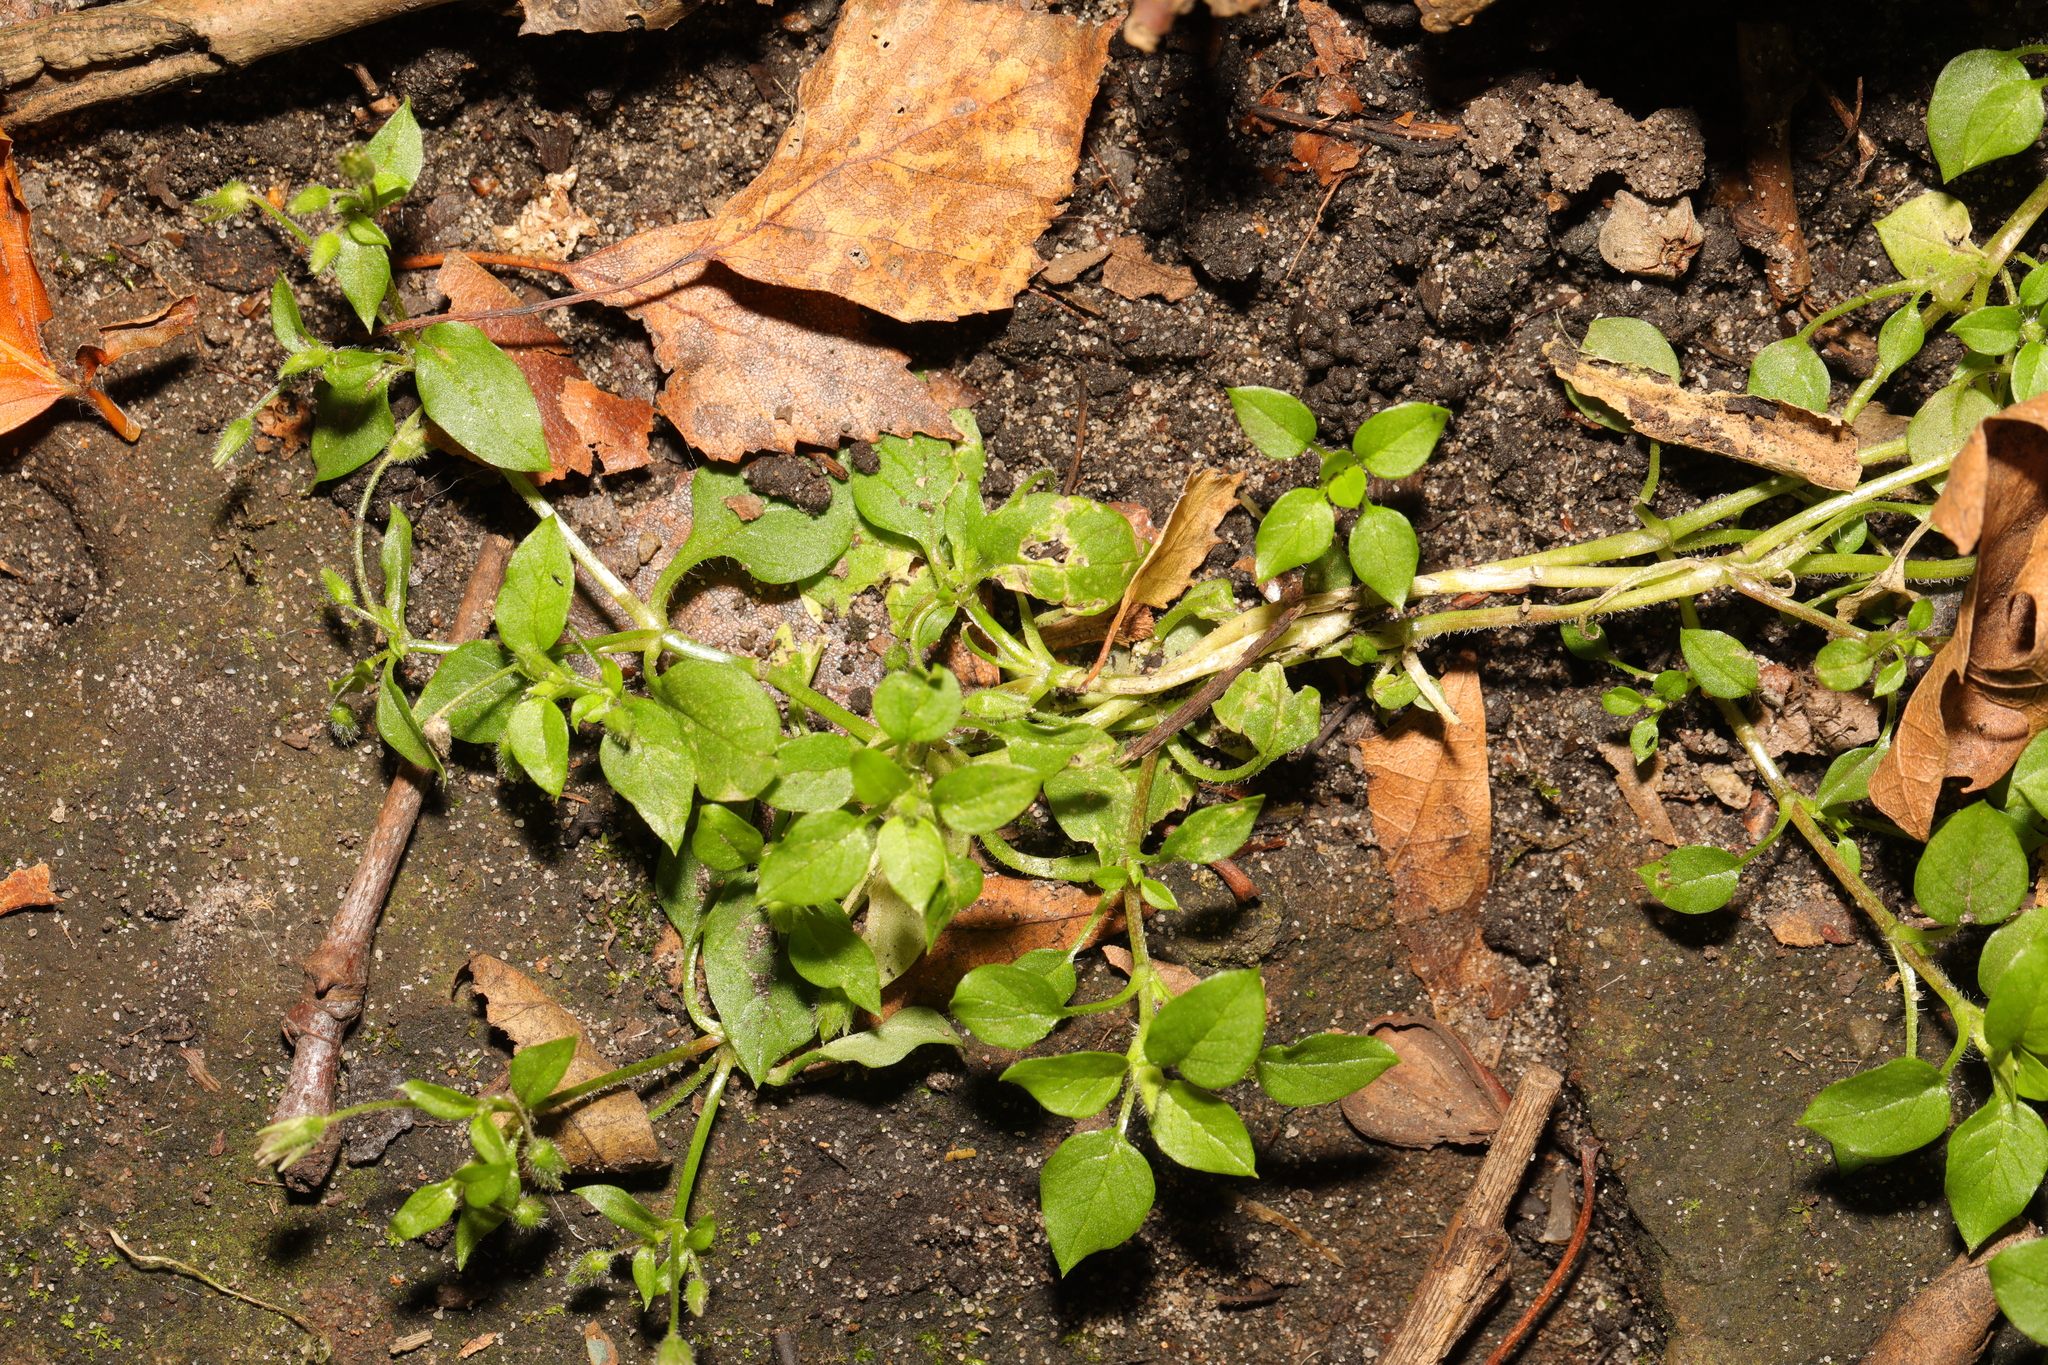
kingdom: Plantae
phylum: Tracheophyta
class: Magnoliopsida
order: Caryophyllales
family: Caryophyllaceae
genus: Stellaria
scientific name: Stellaria media
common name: Common chickweed
